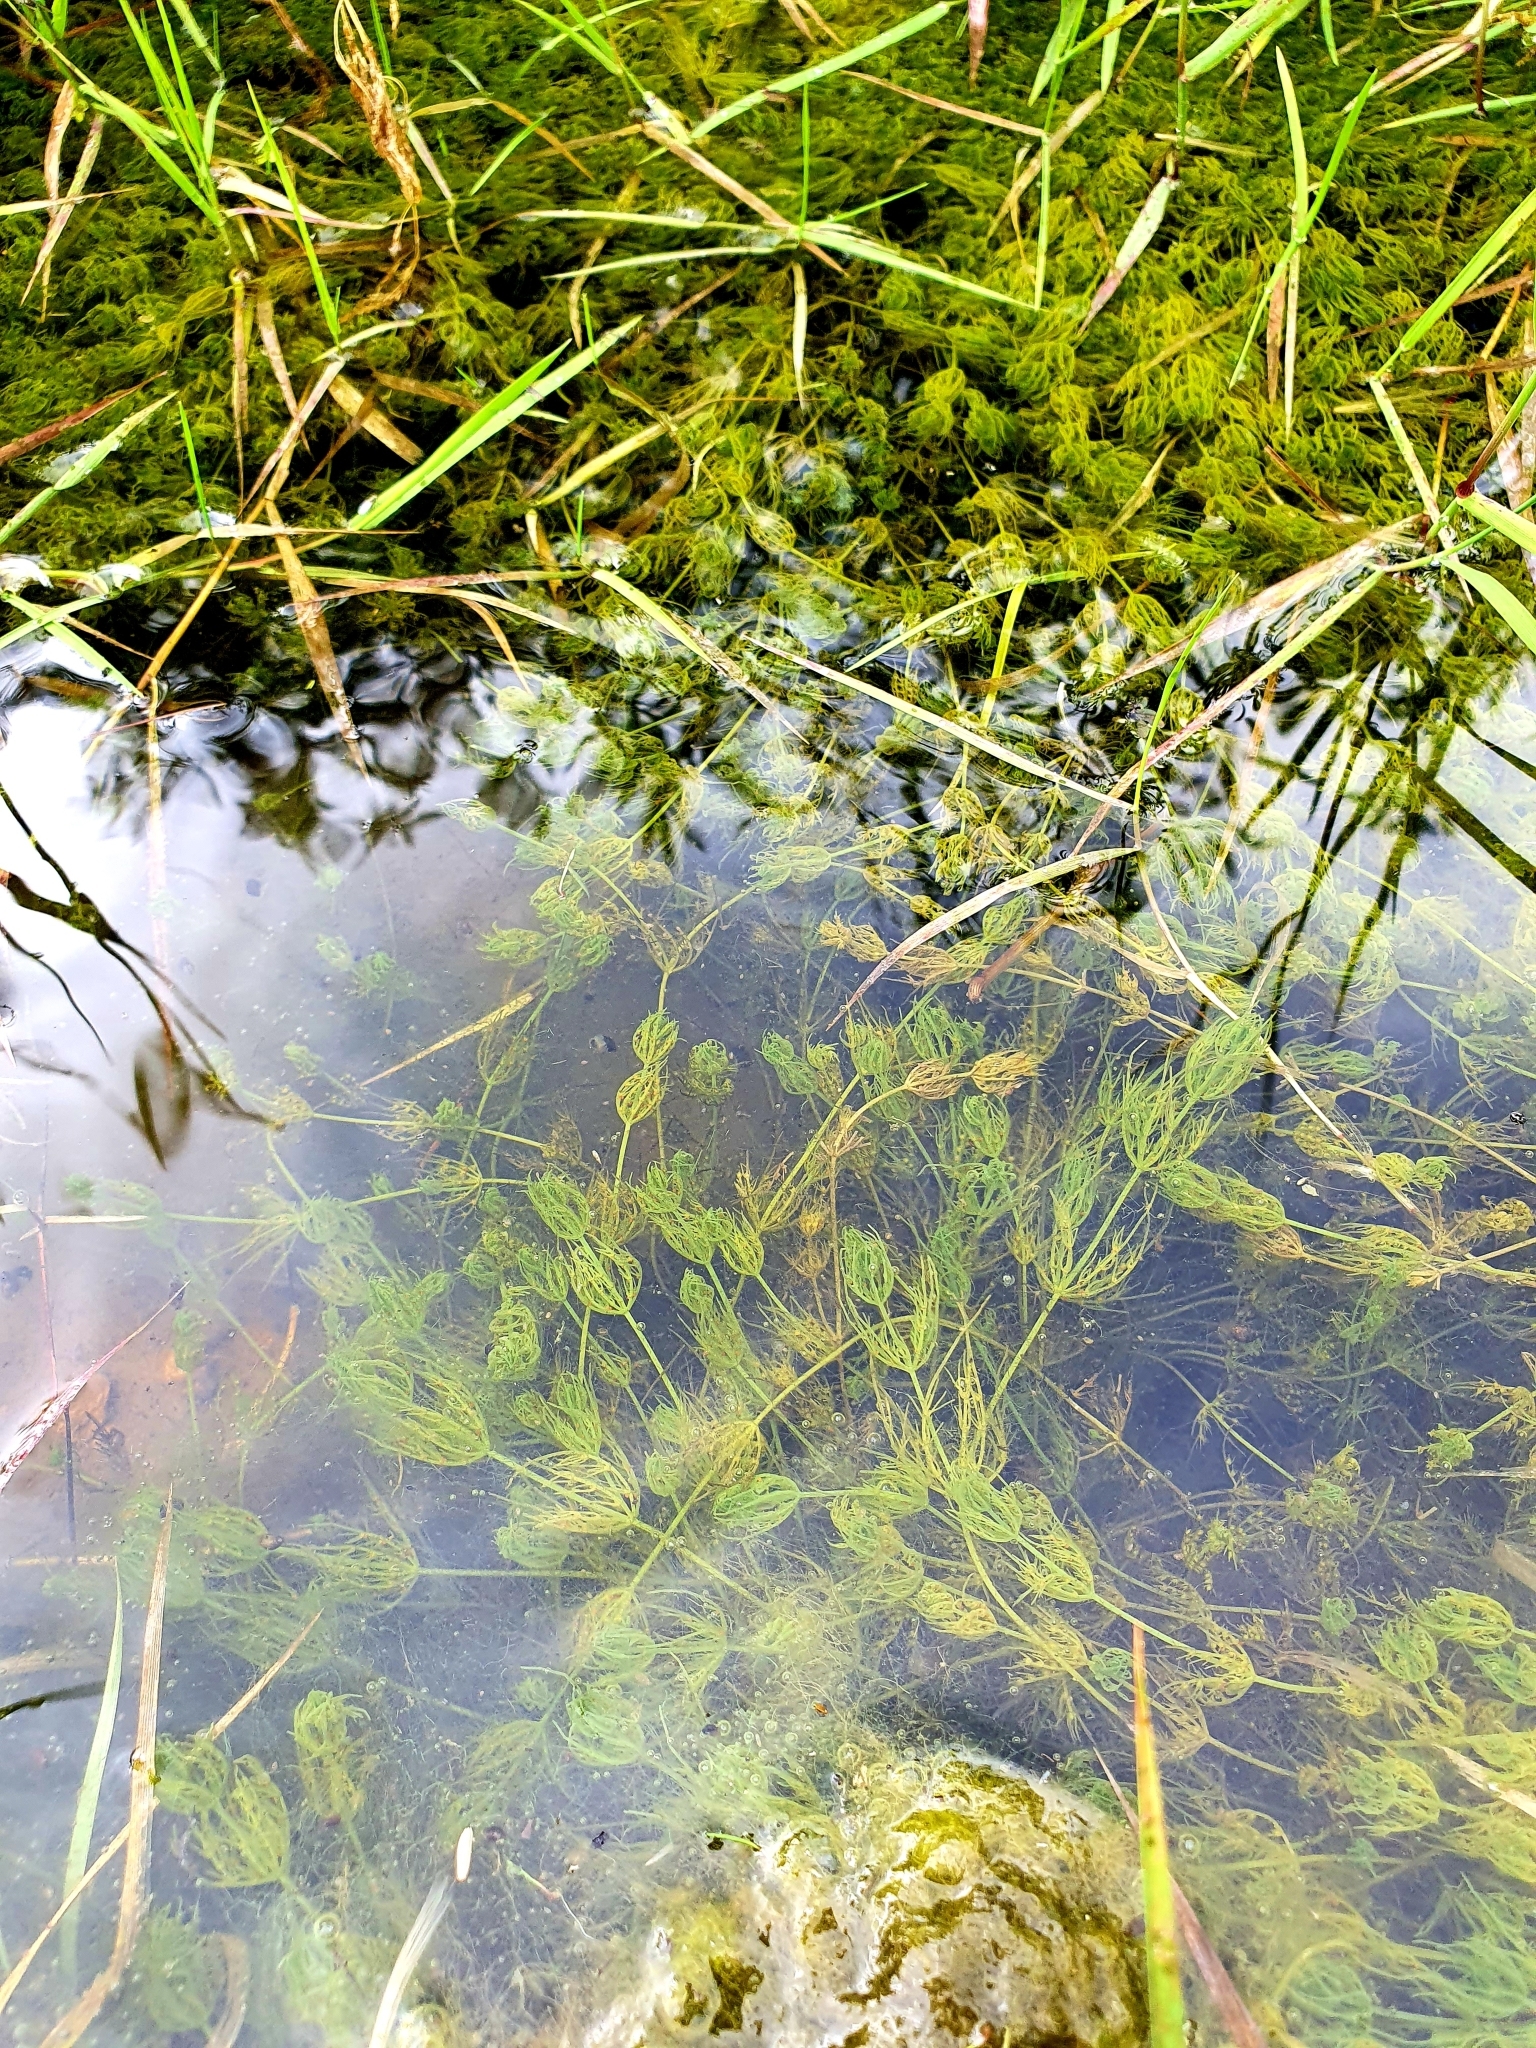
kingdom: Plantae
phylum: Charophyta
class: Charophyceae
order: Charales
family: Characeae
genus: Chara
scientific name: Chara vulgaris
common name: Common stonewort
